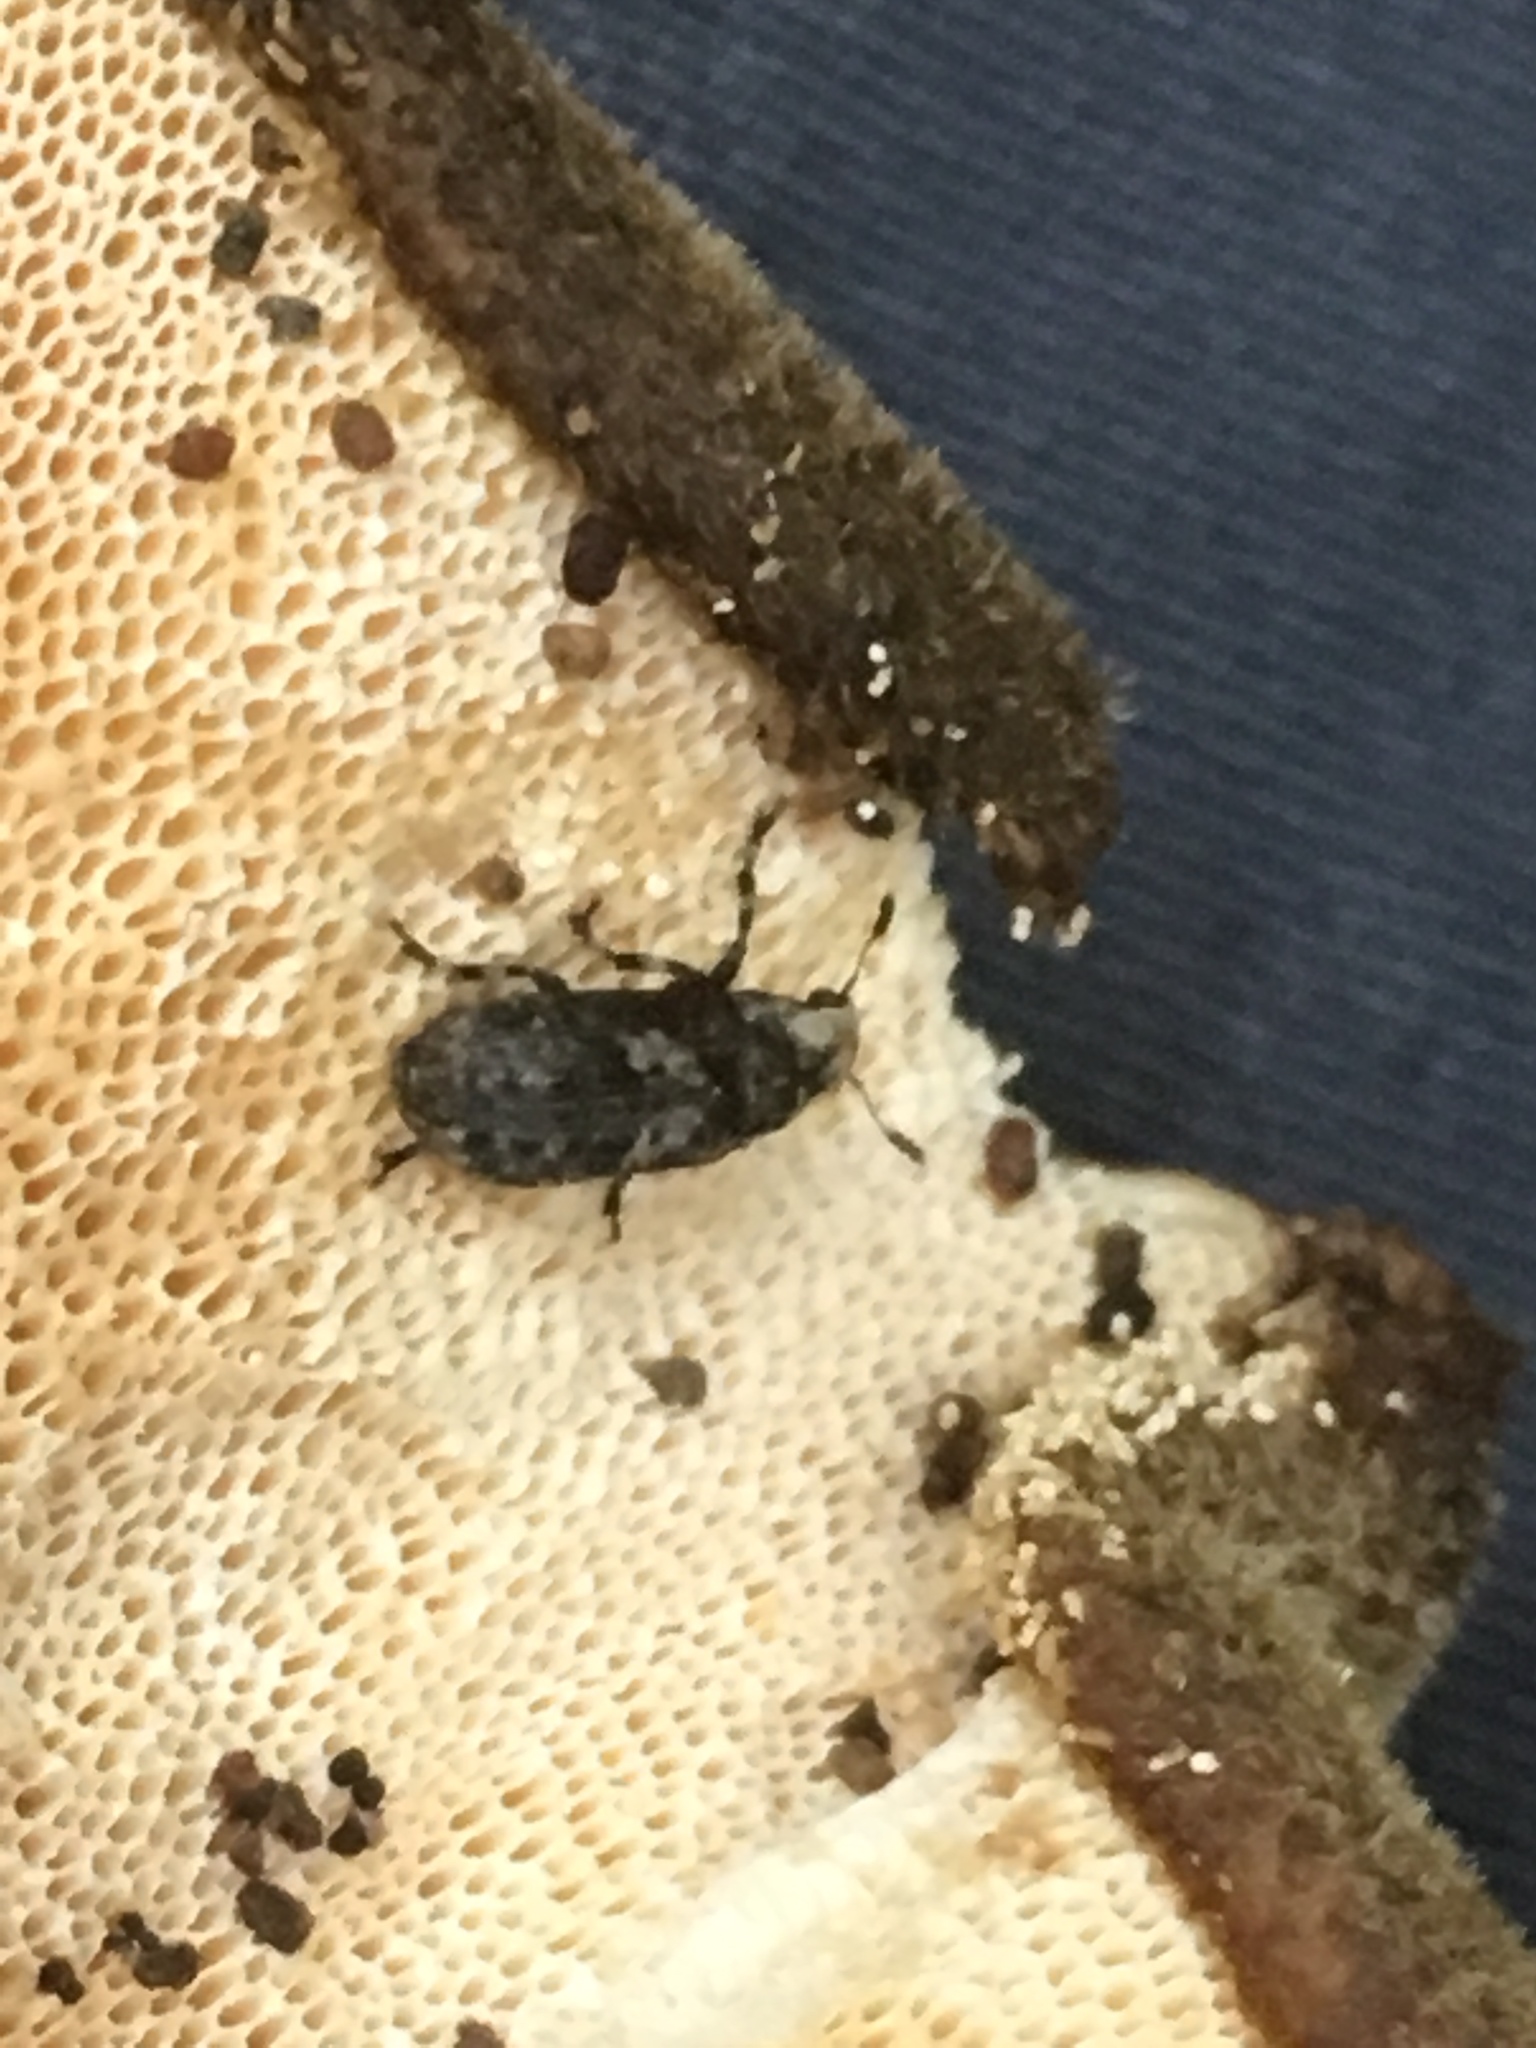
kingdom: Animalia
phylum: Arthropoda
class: Insecta
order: Coleoptera
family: Anthribidae
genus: Euparius
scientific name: Euparius marmoreus
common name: Marbled fungus weevil
